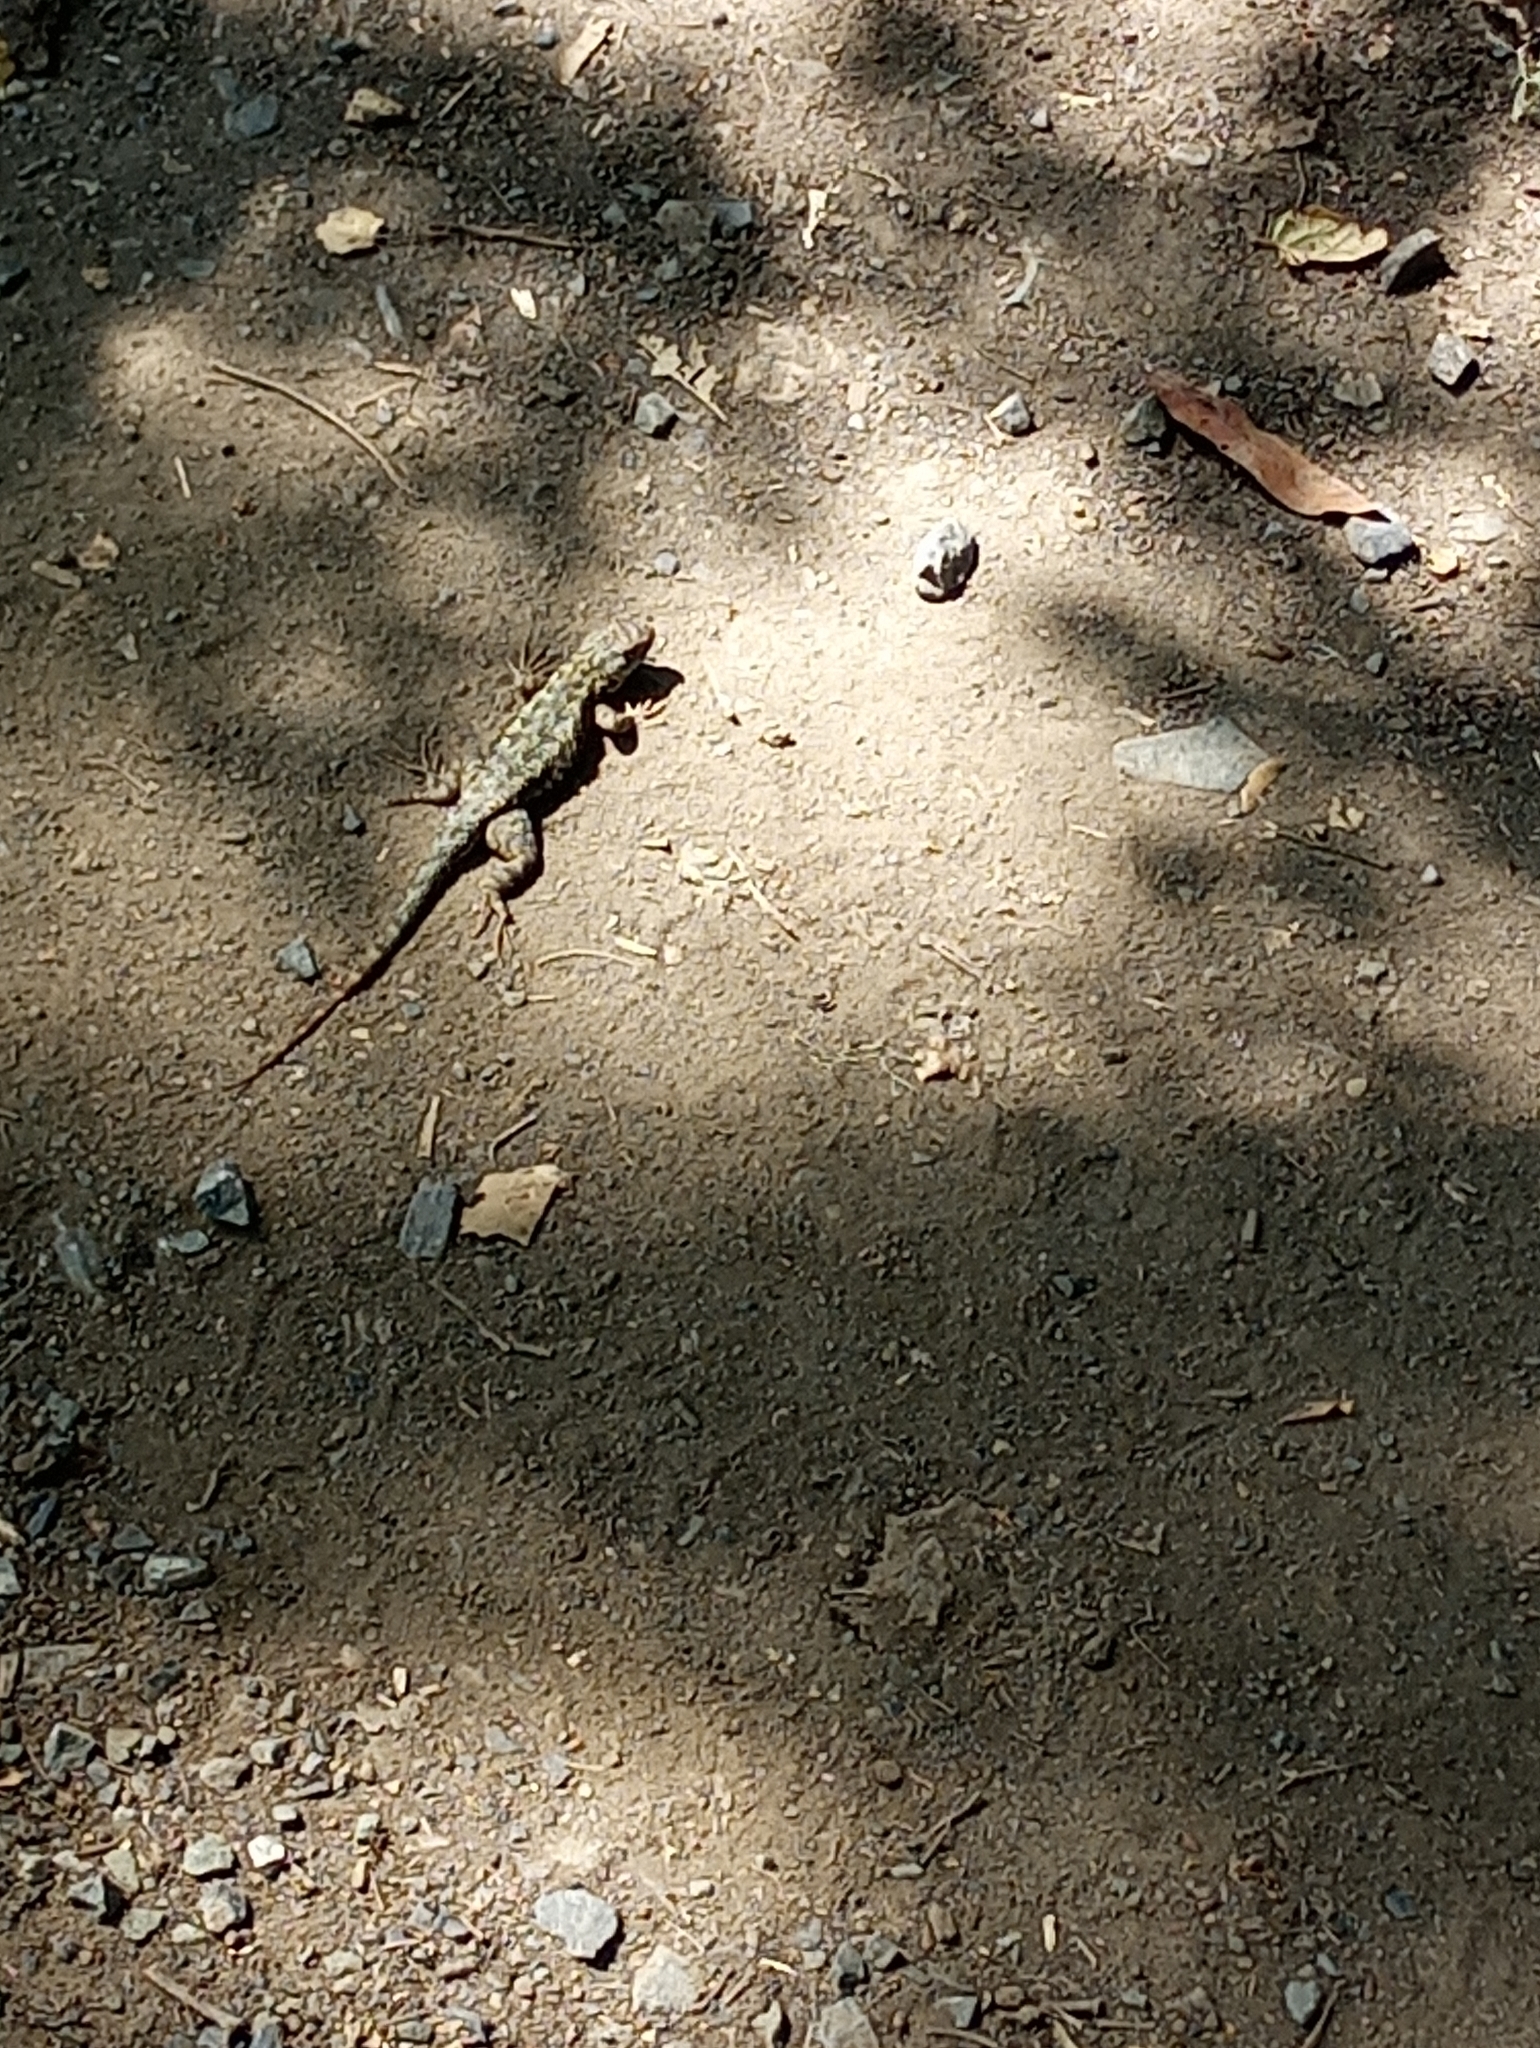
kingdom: Animalia
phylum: Chordata
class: Squamata
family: Phrynosomatidae
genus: Sceloporus
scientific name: Sceloporus occidentalis
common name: Western fence lizard
